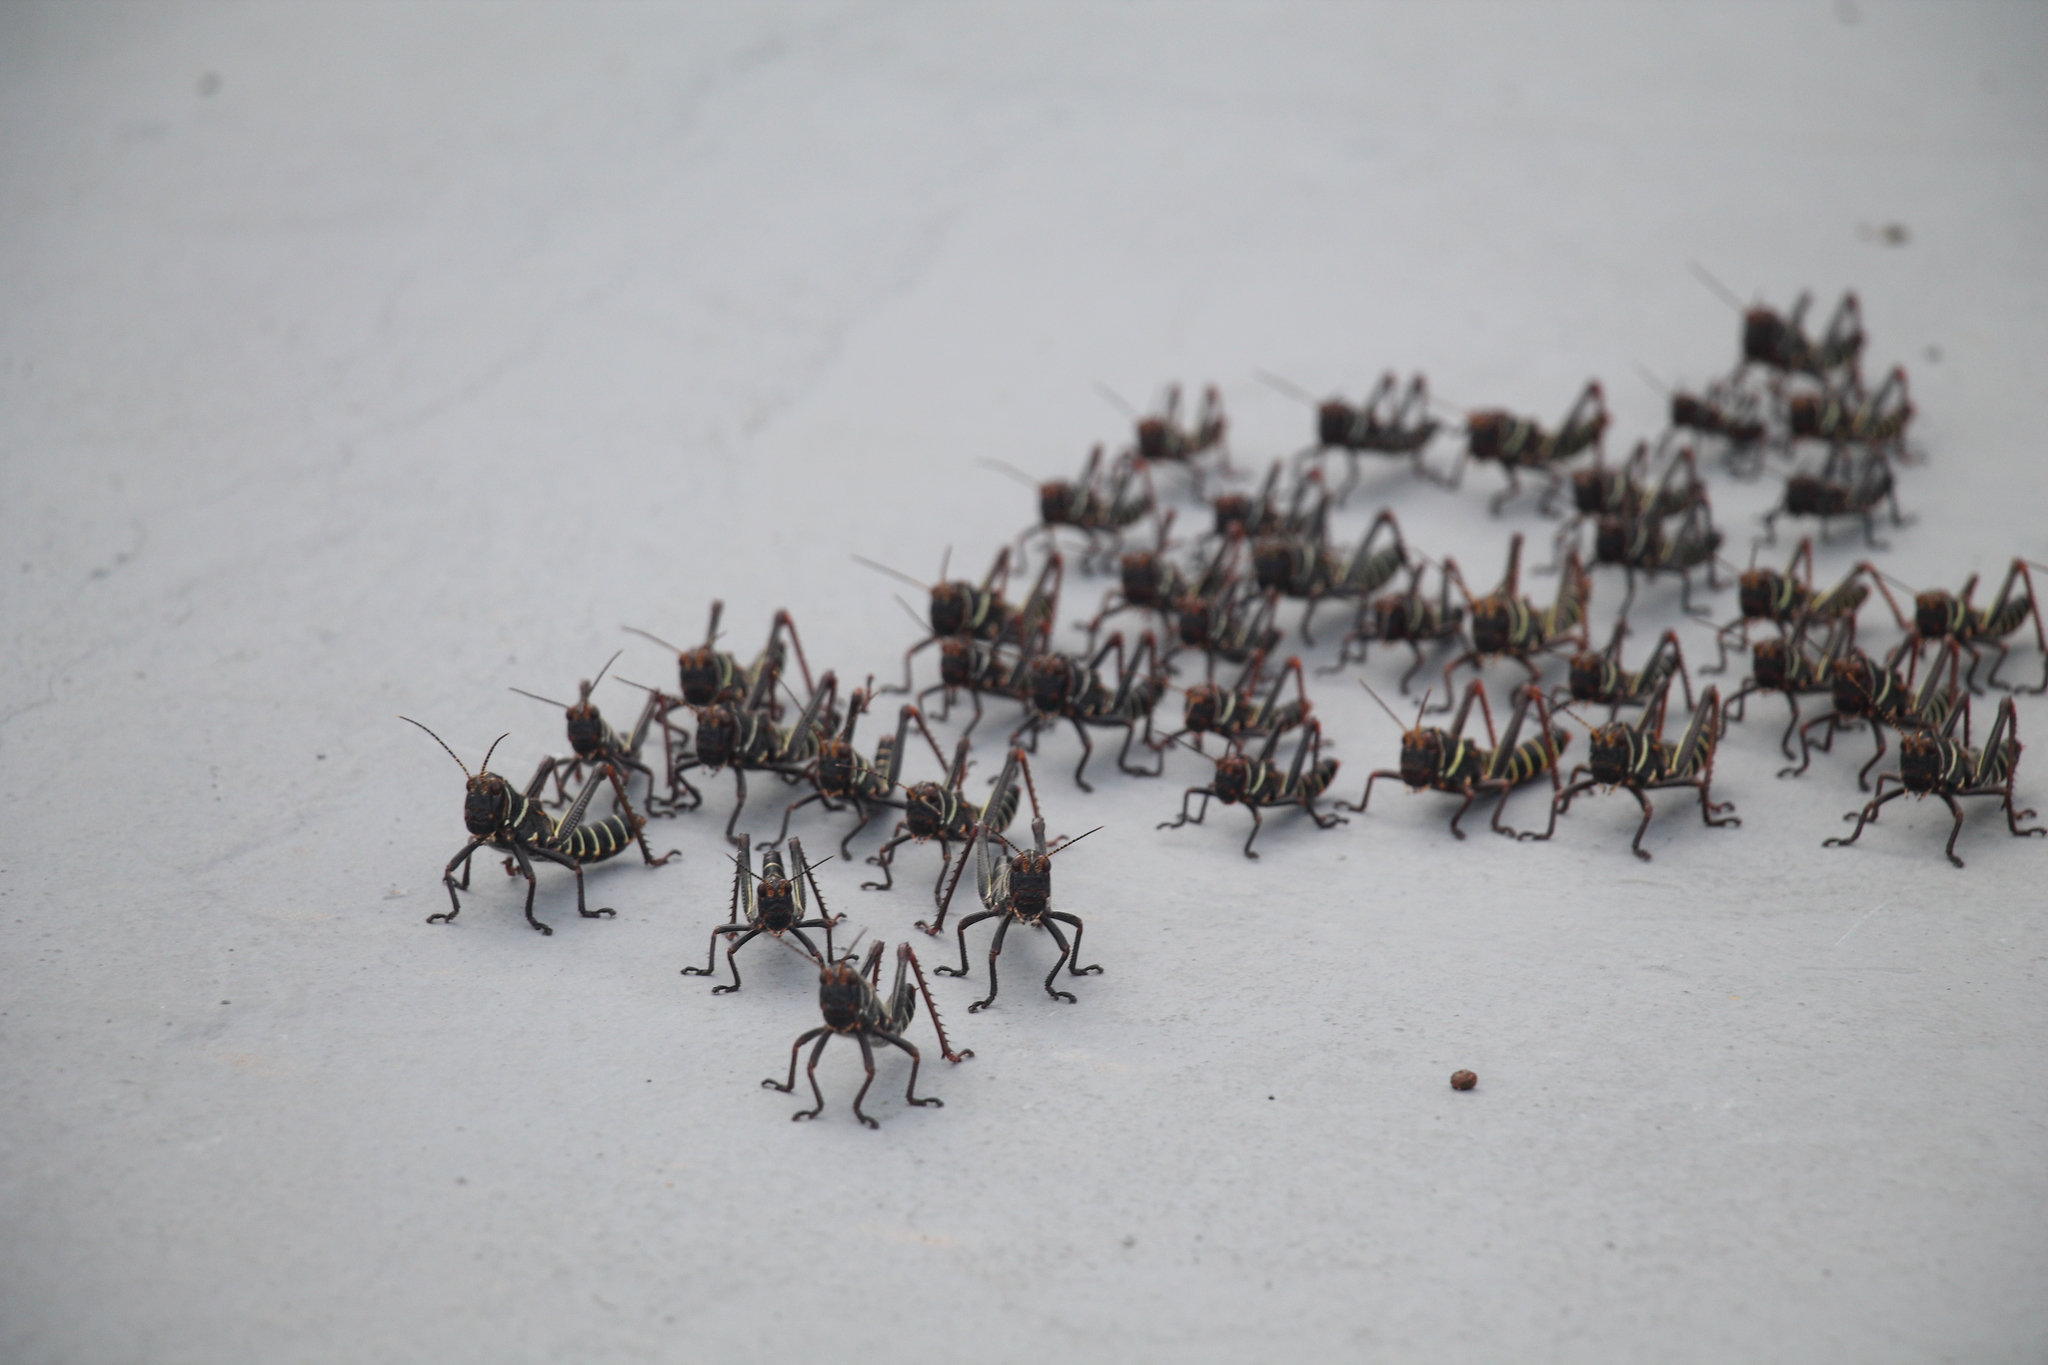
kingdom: Animalia
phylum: Arthropoda
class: Insecta
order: Orthoptera
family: Romaleidae
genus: Tropidacris
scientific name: Tropidacris collaris
